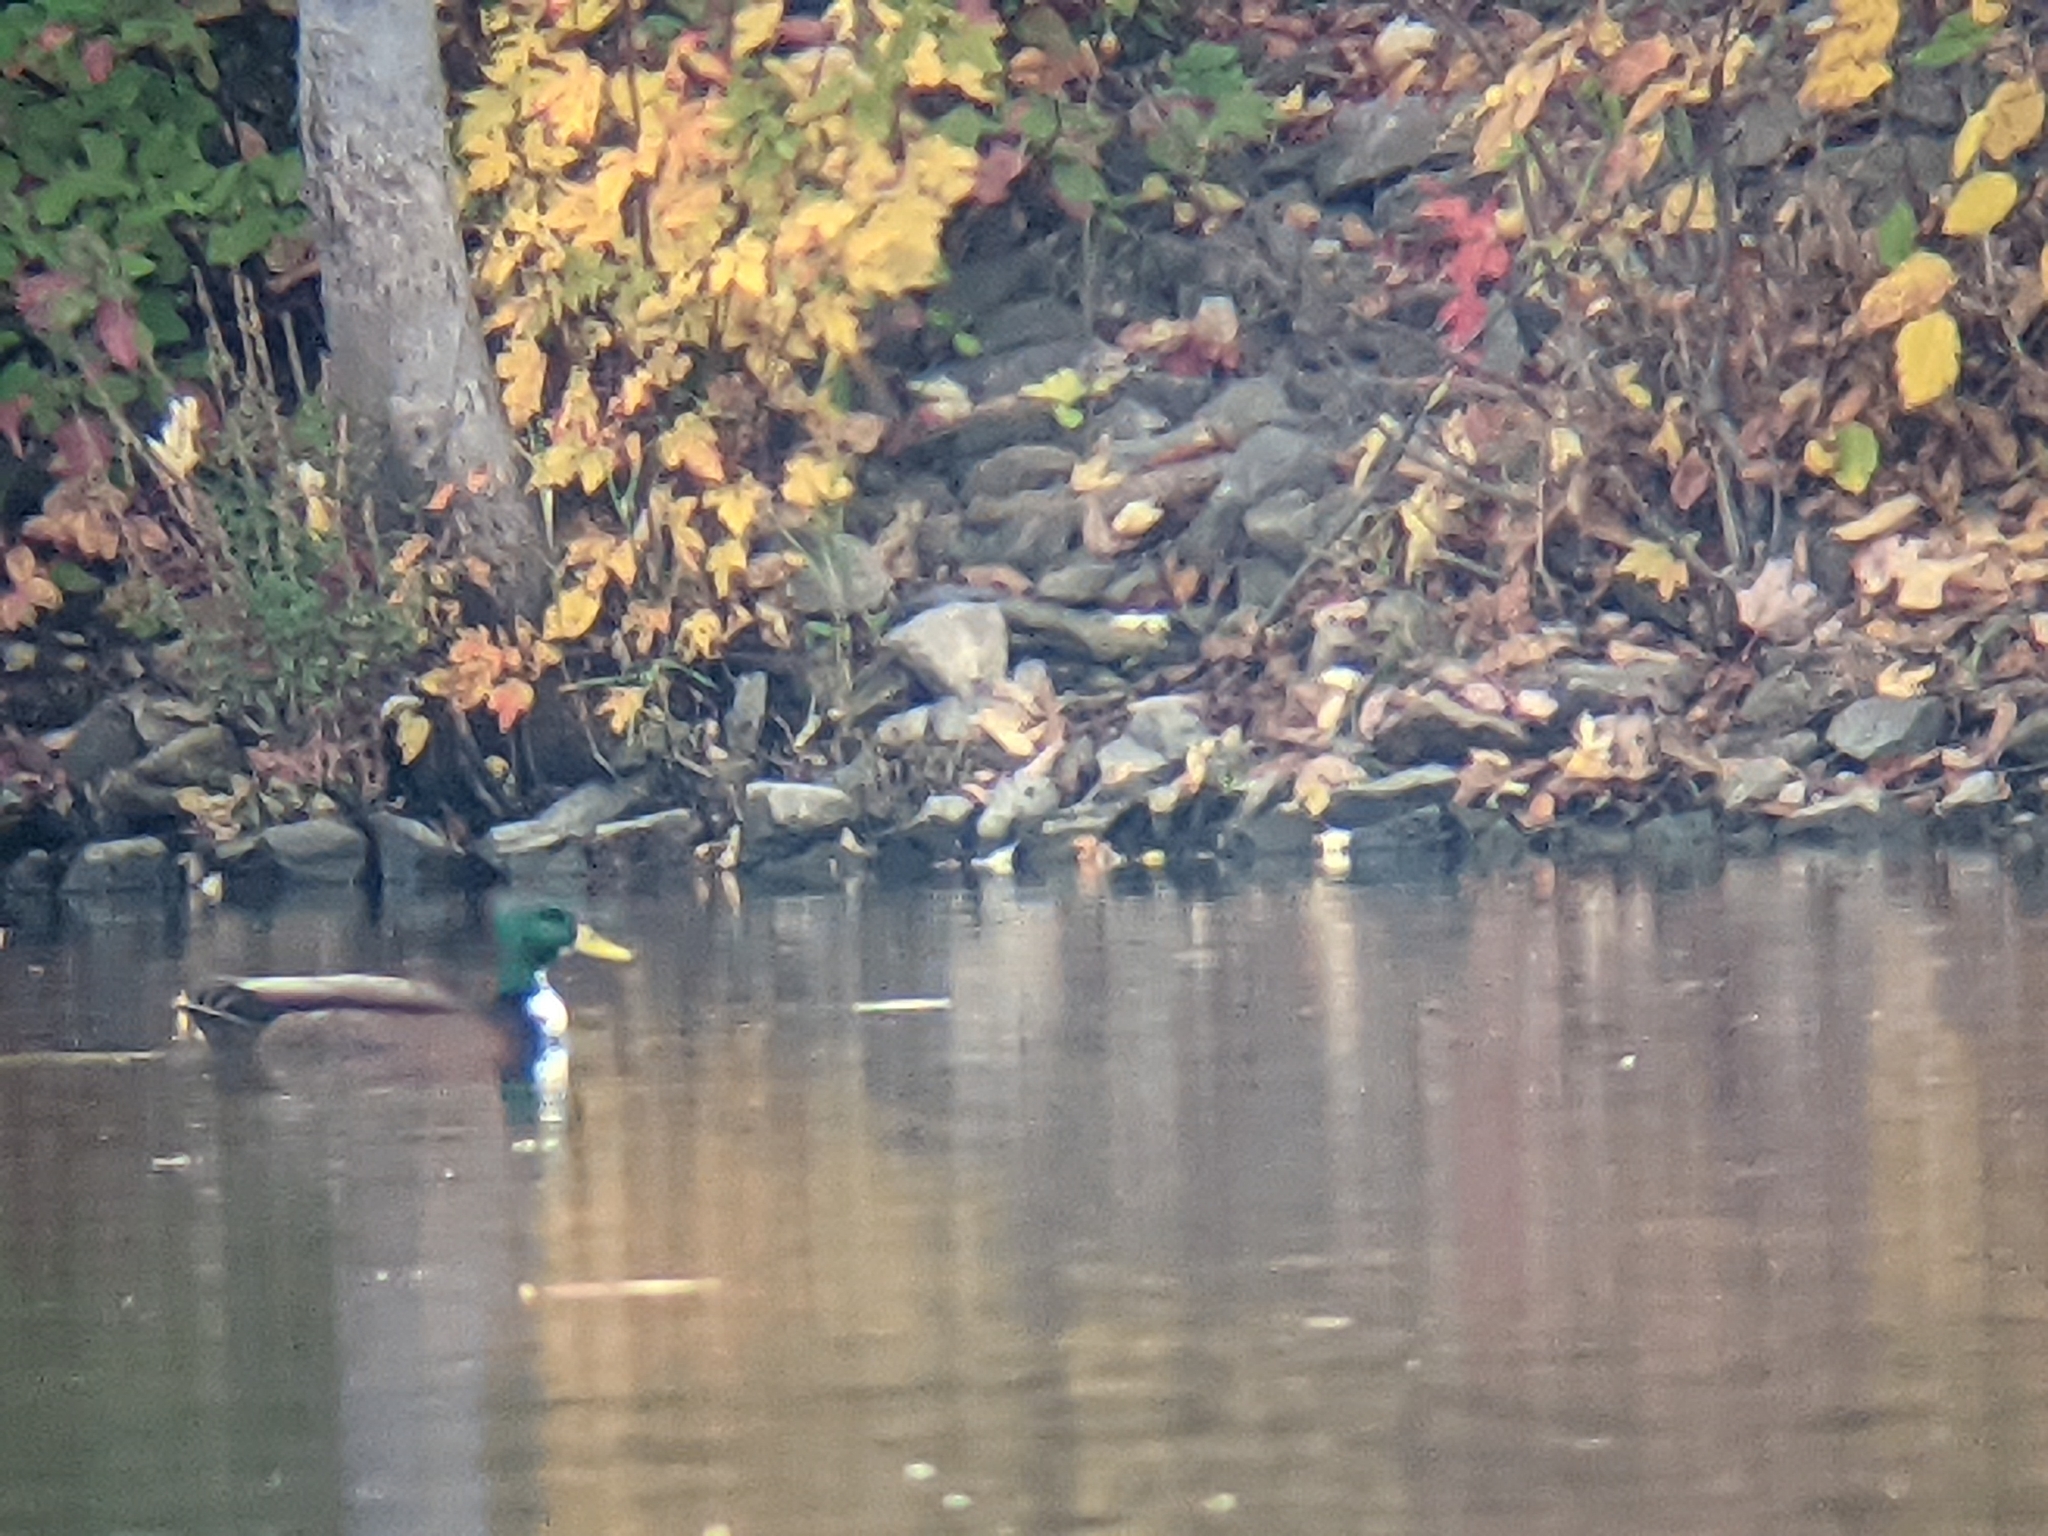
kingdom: Animalia
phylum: Chordata
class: Aves
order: Anseriformes
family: Anatidae
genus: Anas
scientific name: Anas platyrhynchos
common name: Mallard
